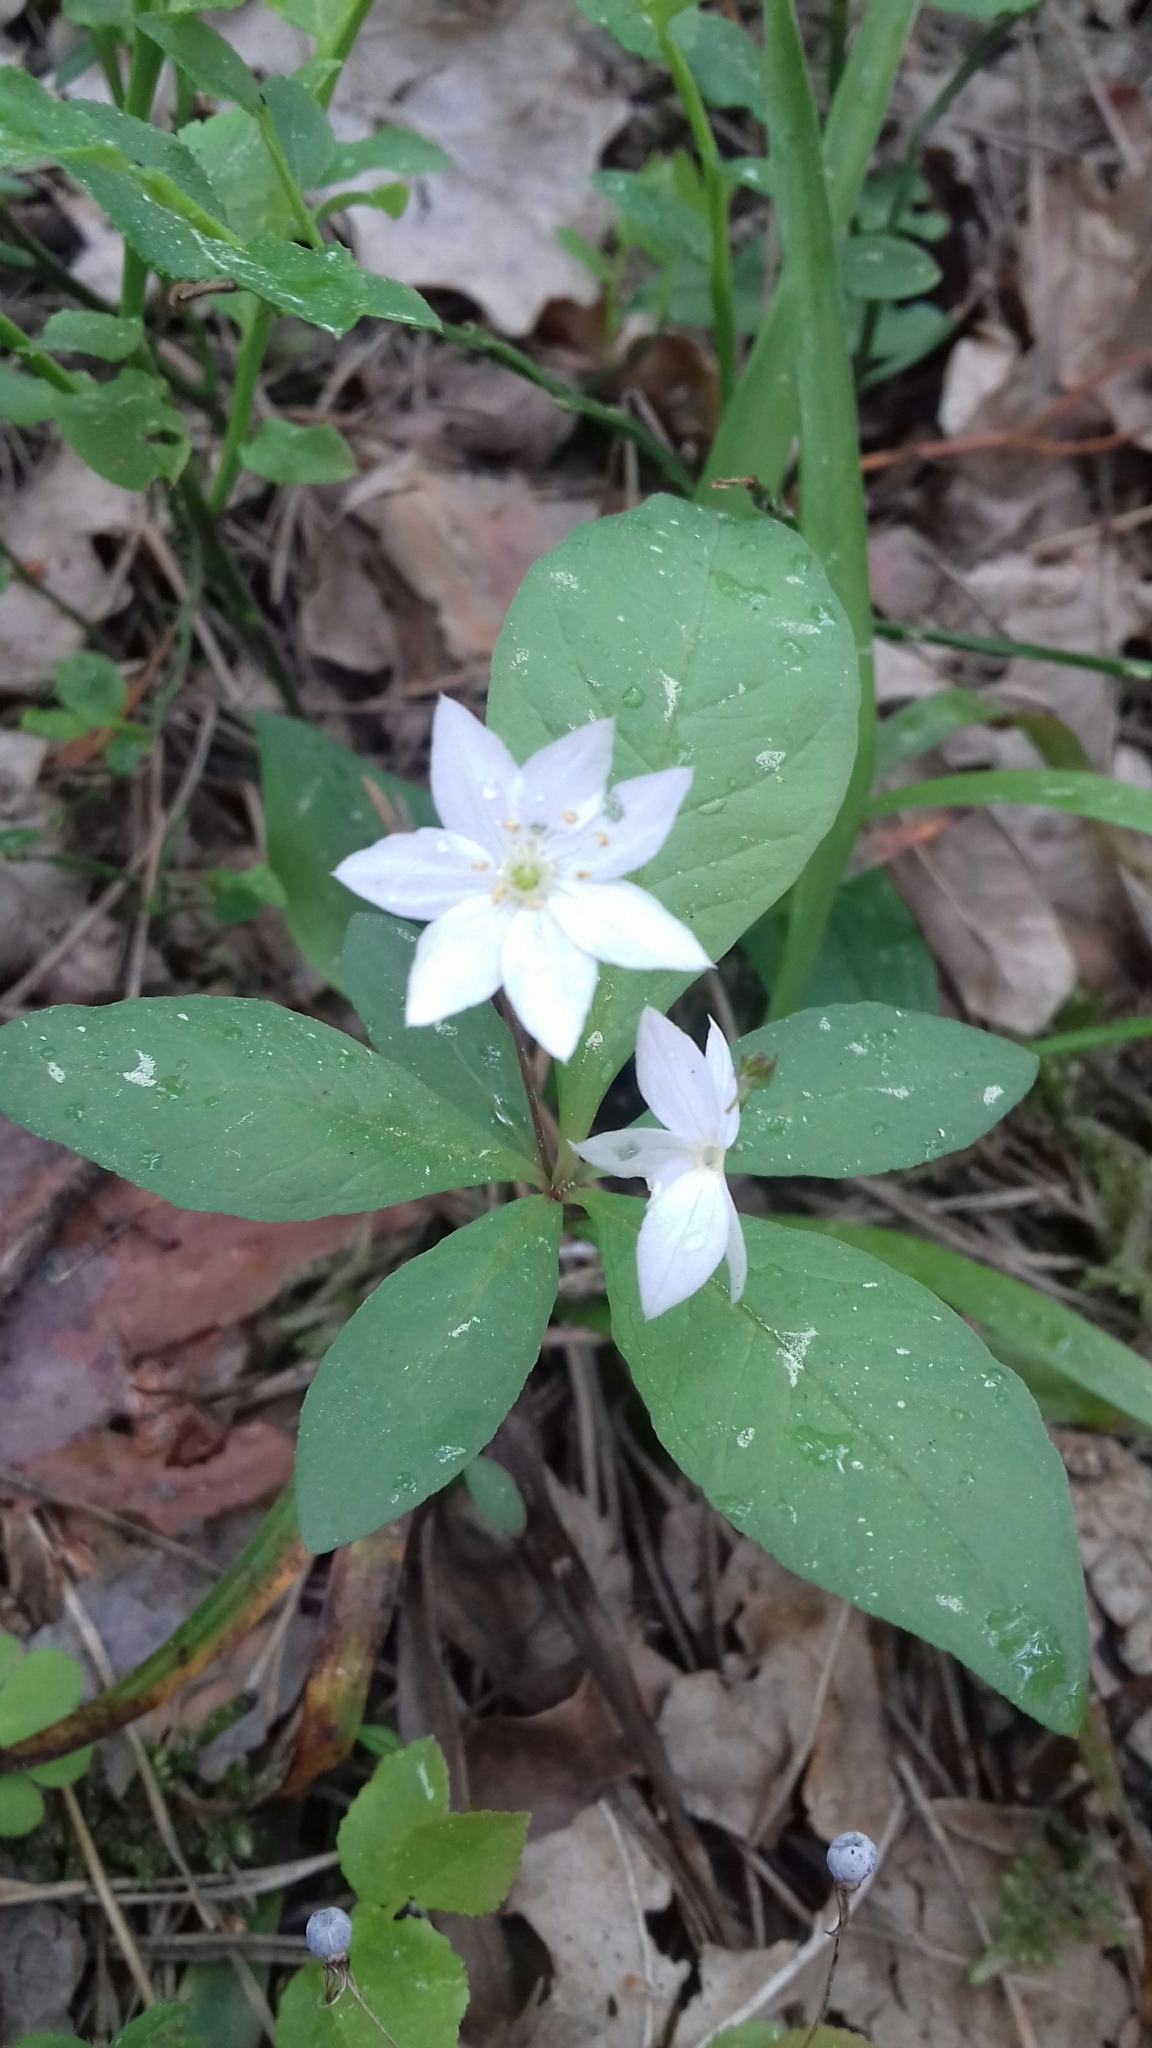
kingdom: Plantae
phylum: Tracheophyta
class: Magnoliopsida
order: Ericales
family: Primulaceae
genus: Lysimachia
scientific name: Lysimachia europaea
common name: Arctic starflower
